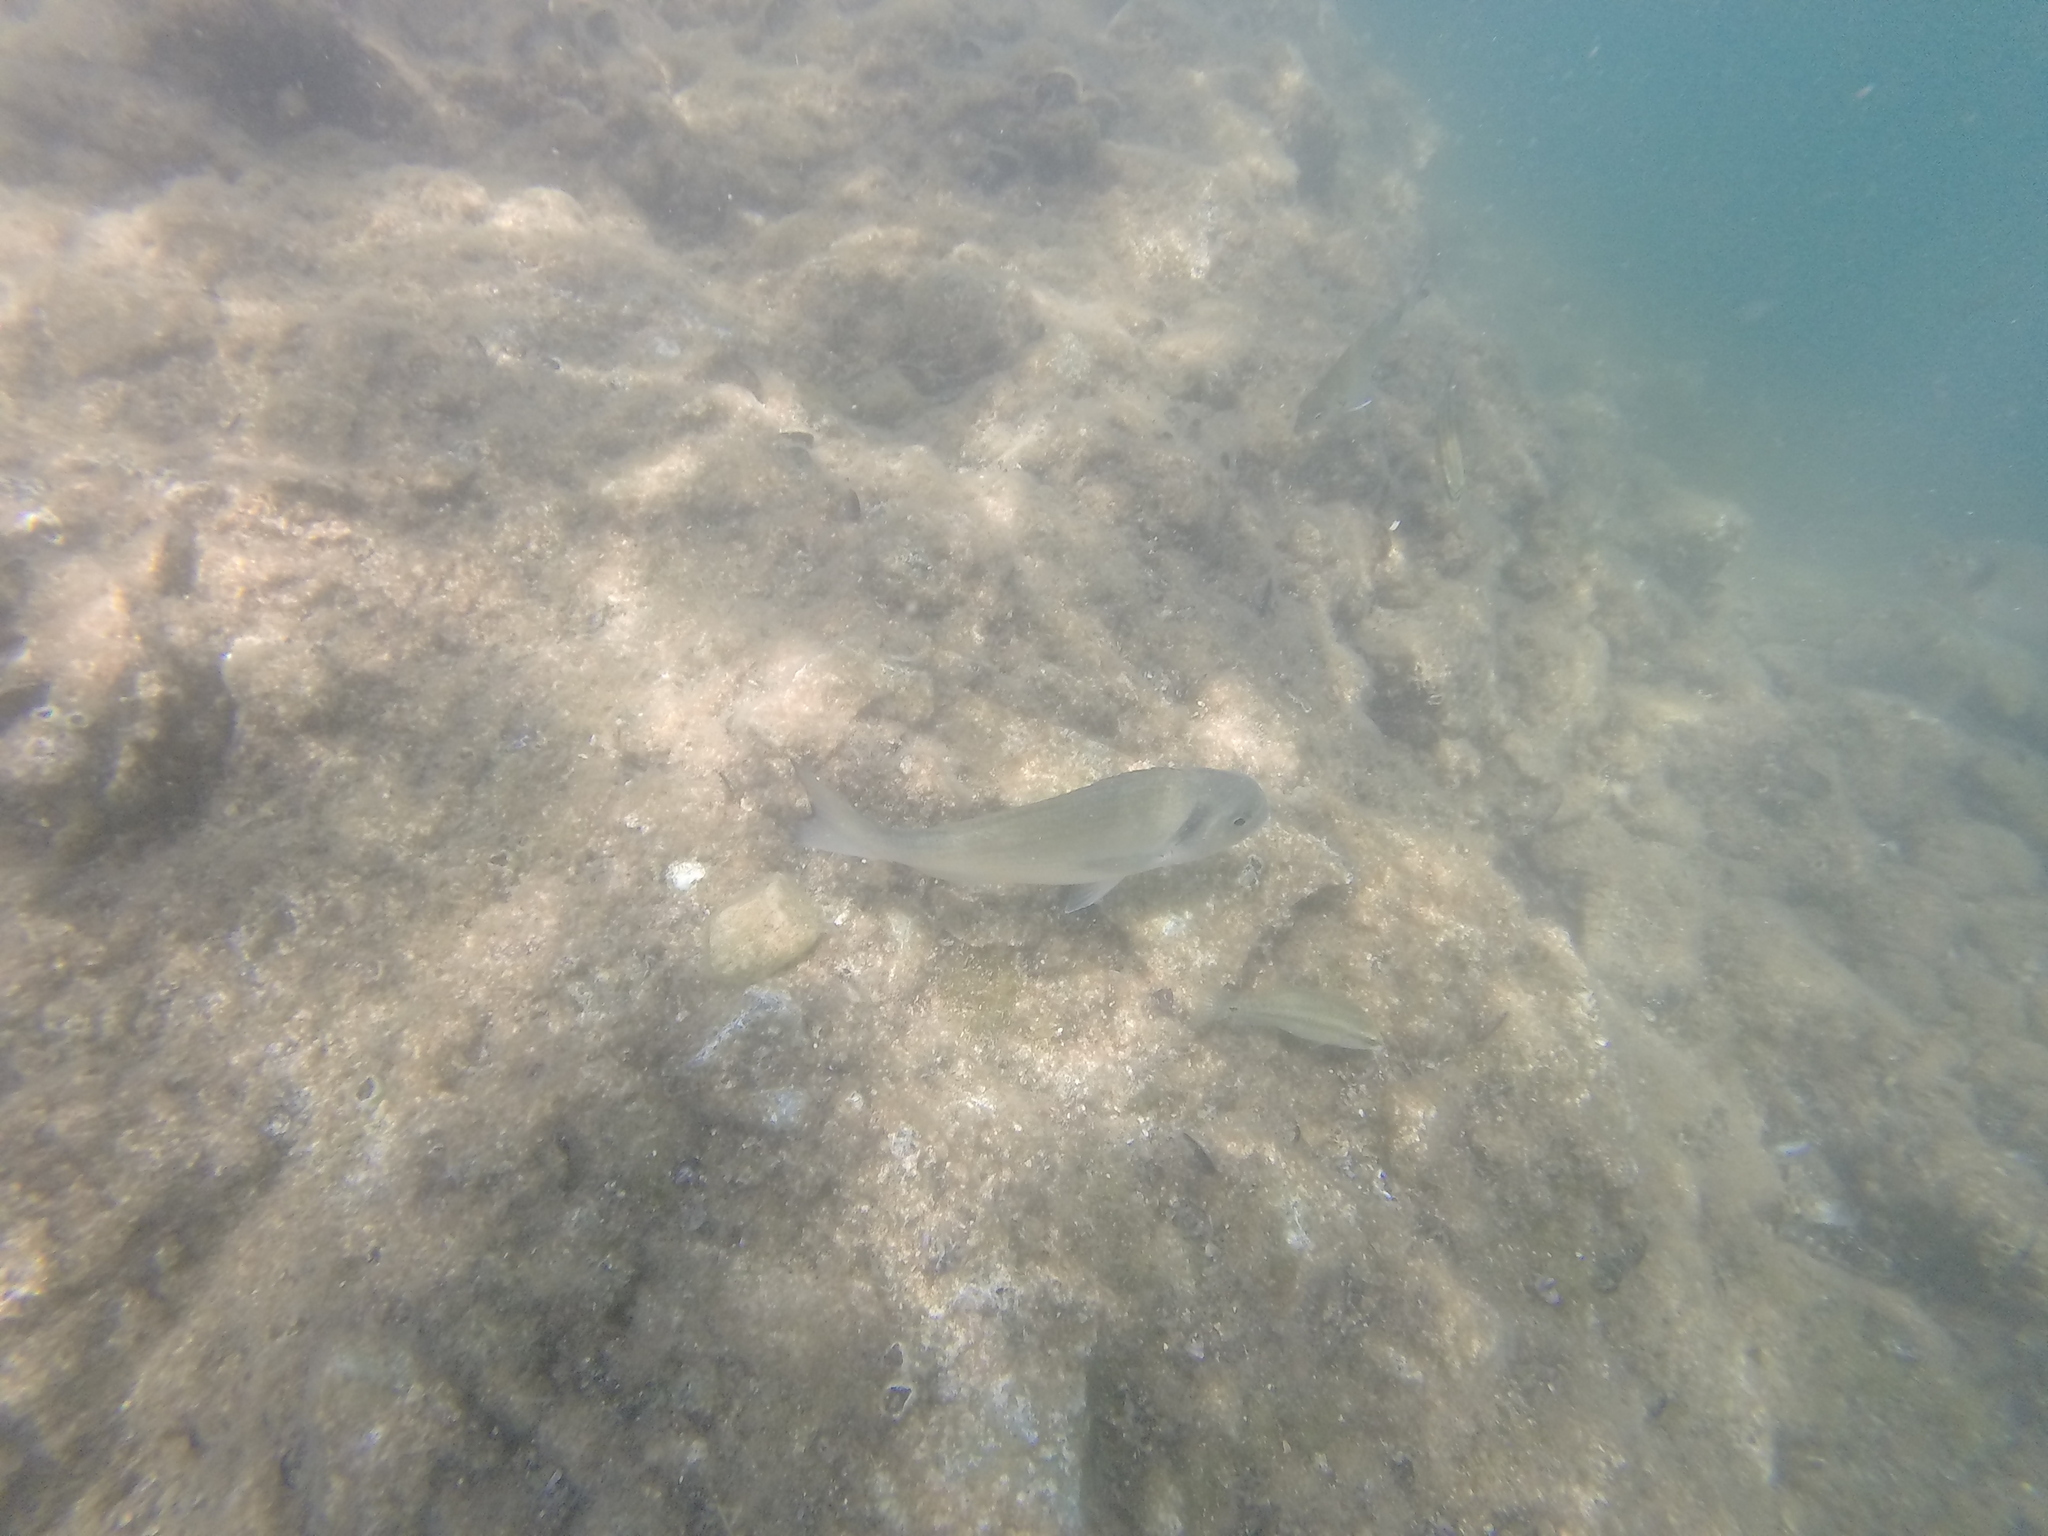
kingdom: Animalia
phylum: Chordata
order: Perciformes
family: Sparidae
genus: Sparus
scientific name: Sparus aurata
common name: Gilthead
